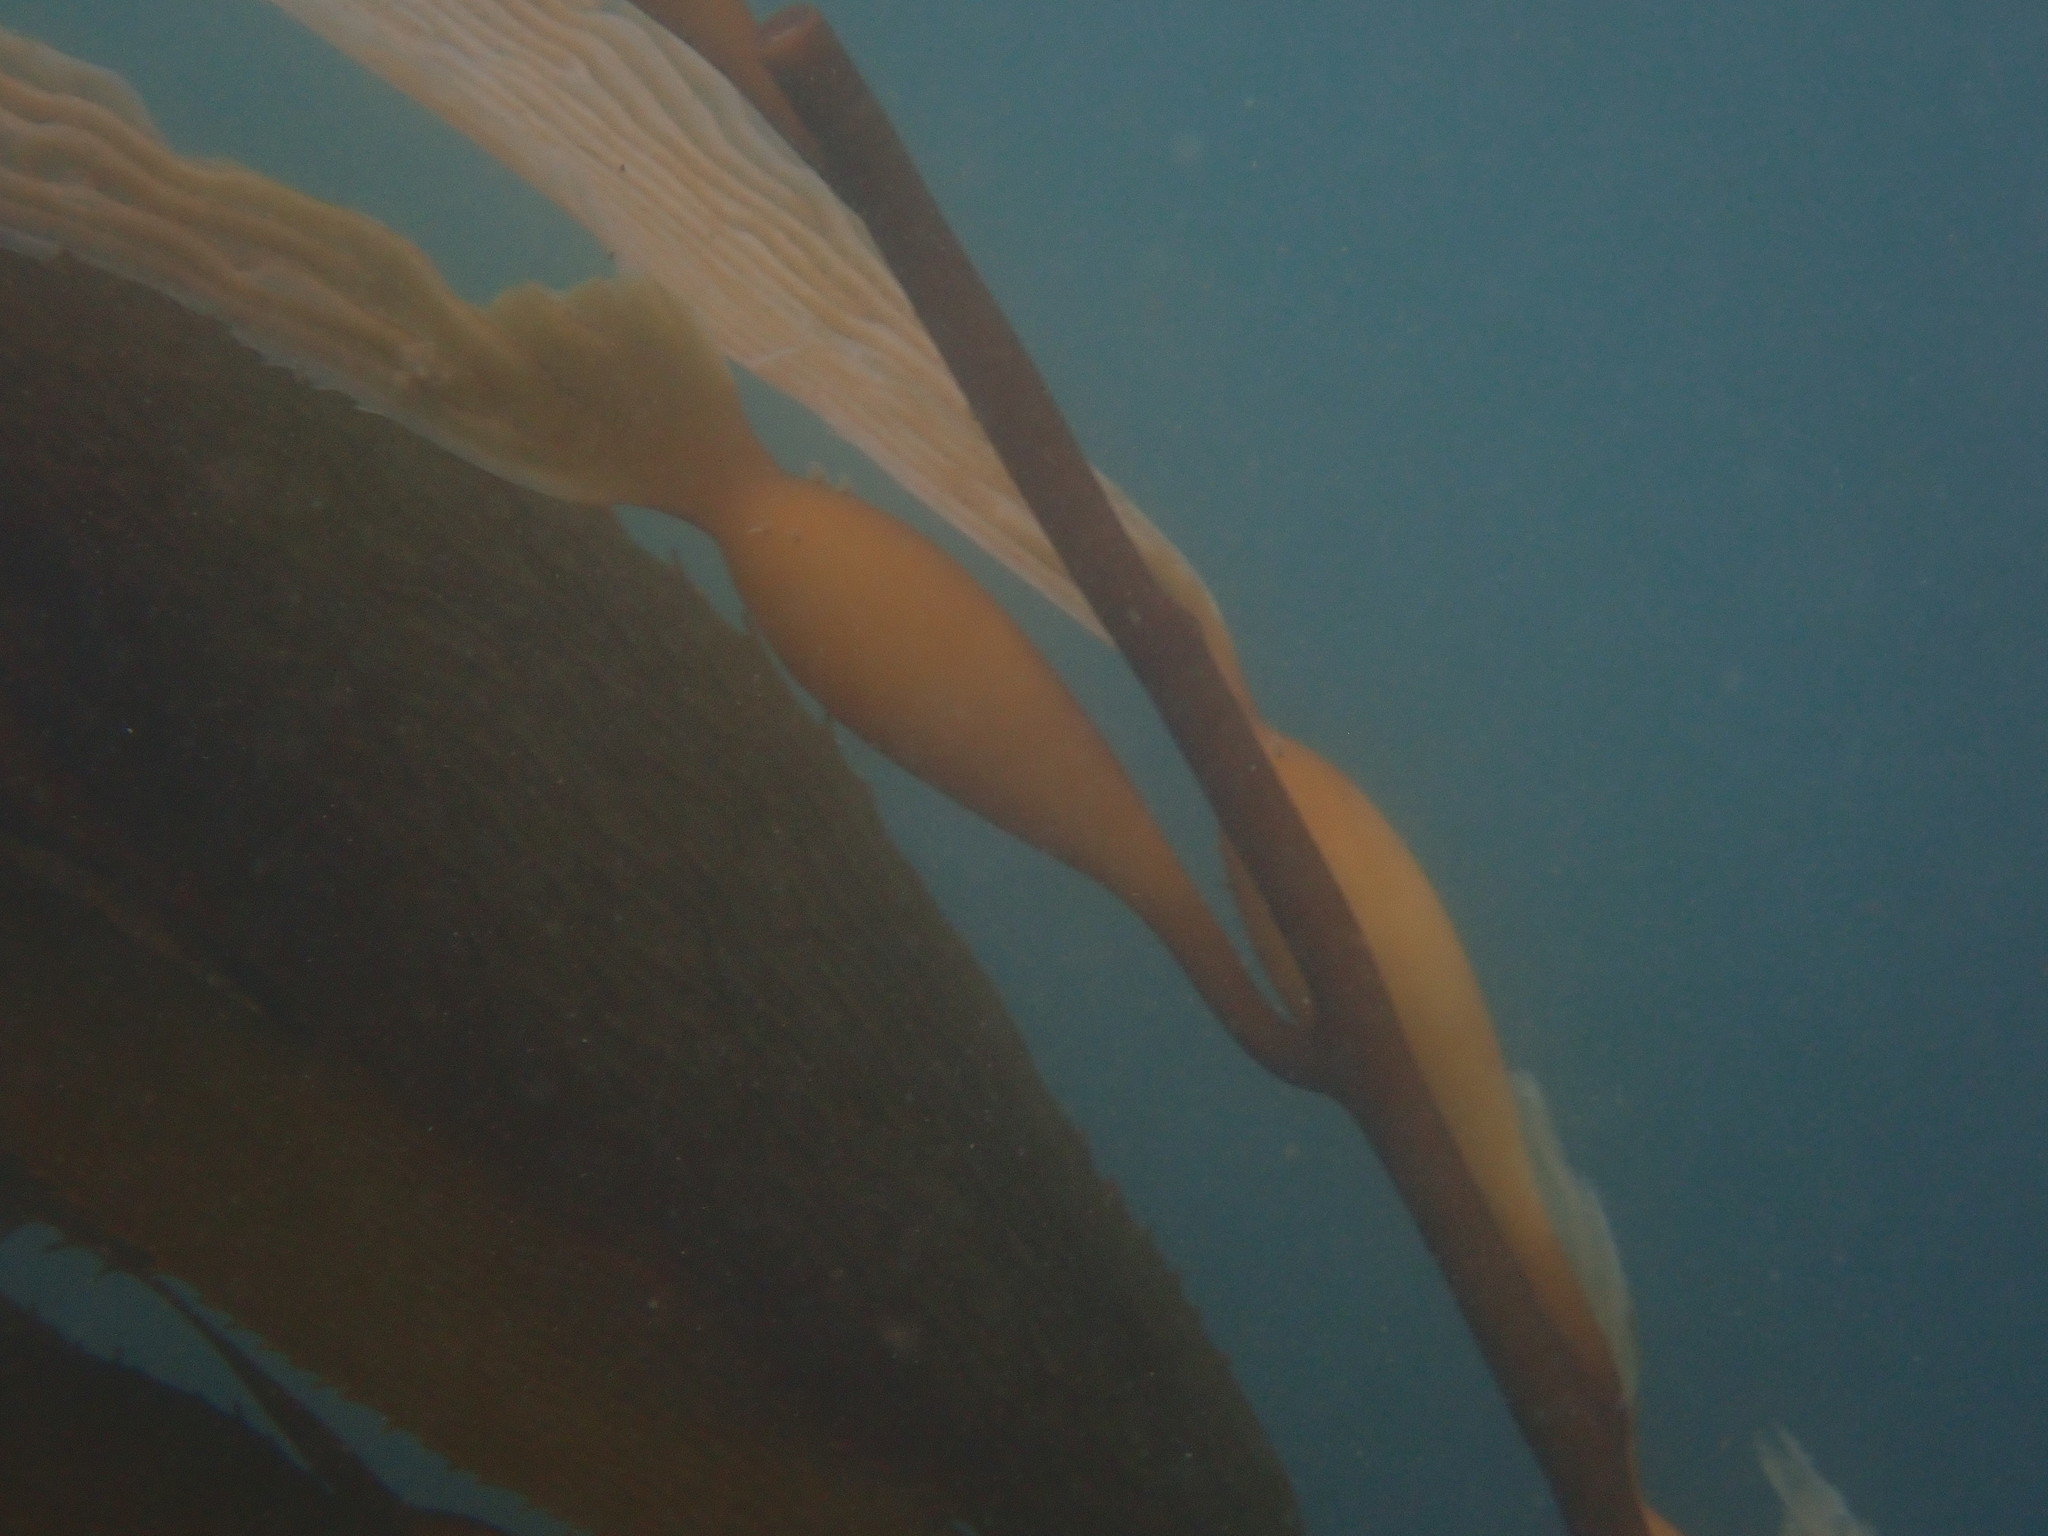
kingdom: Chromista
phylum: Ochrophyta
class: Phaeophyceae
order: Laminariales
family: Laminariaceae
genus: Macrocystis
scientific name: Macrocystis pyrifera
